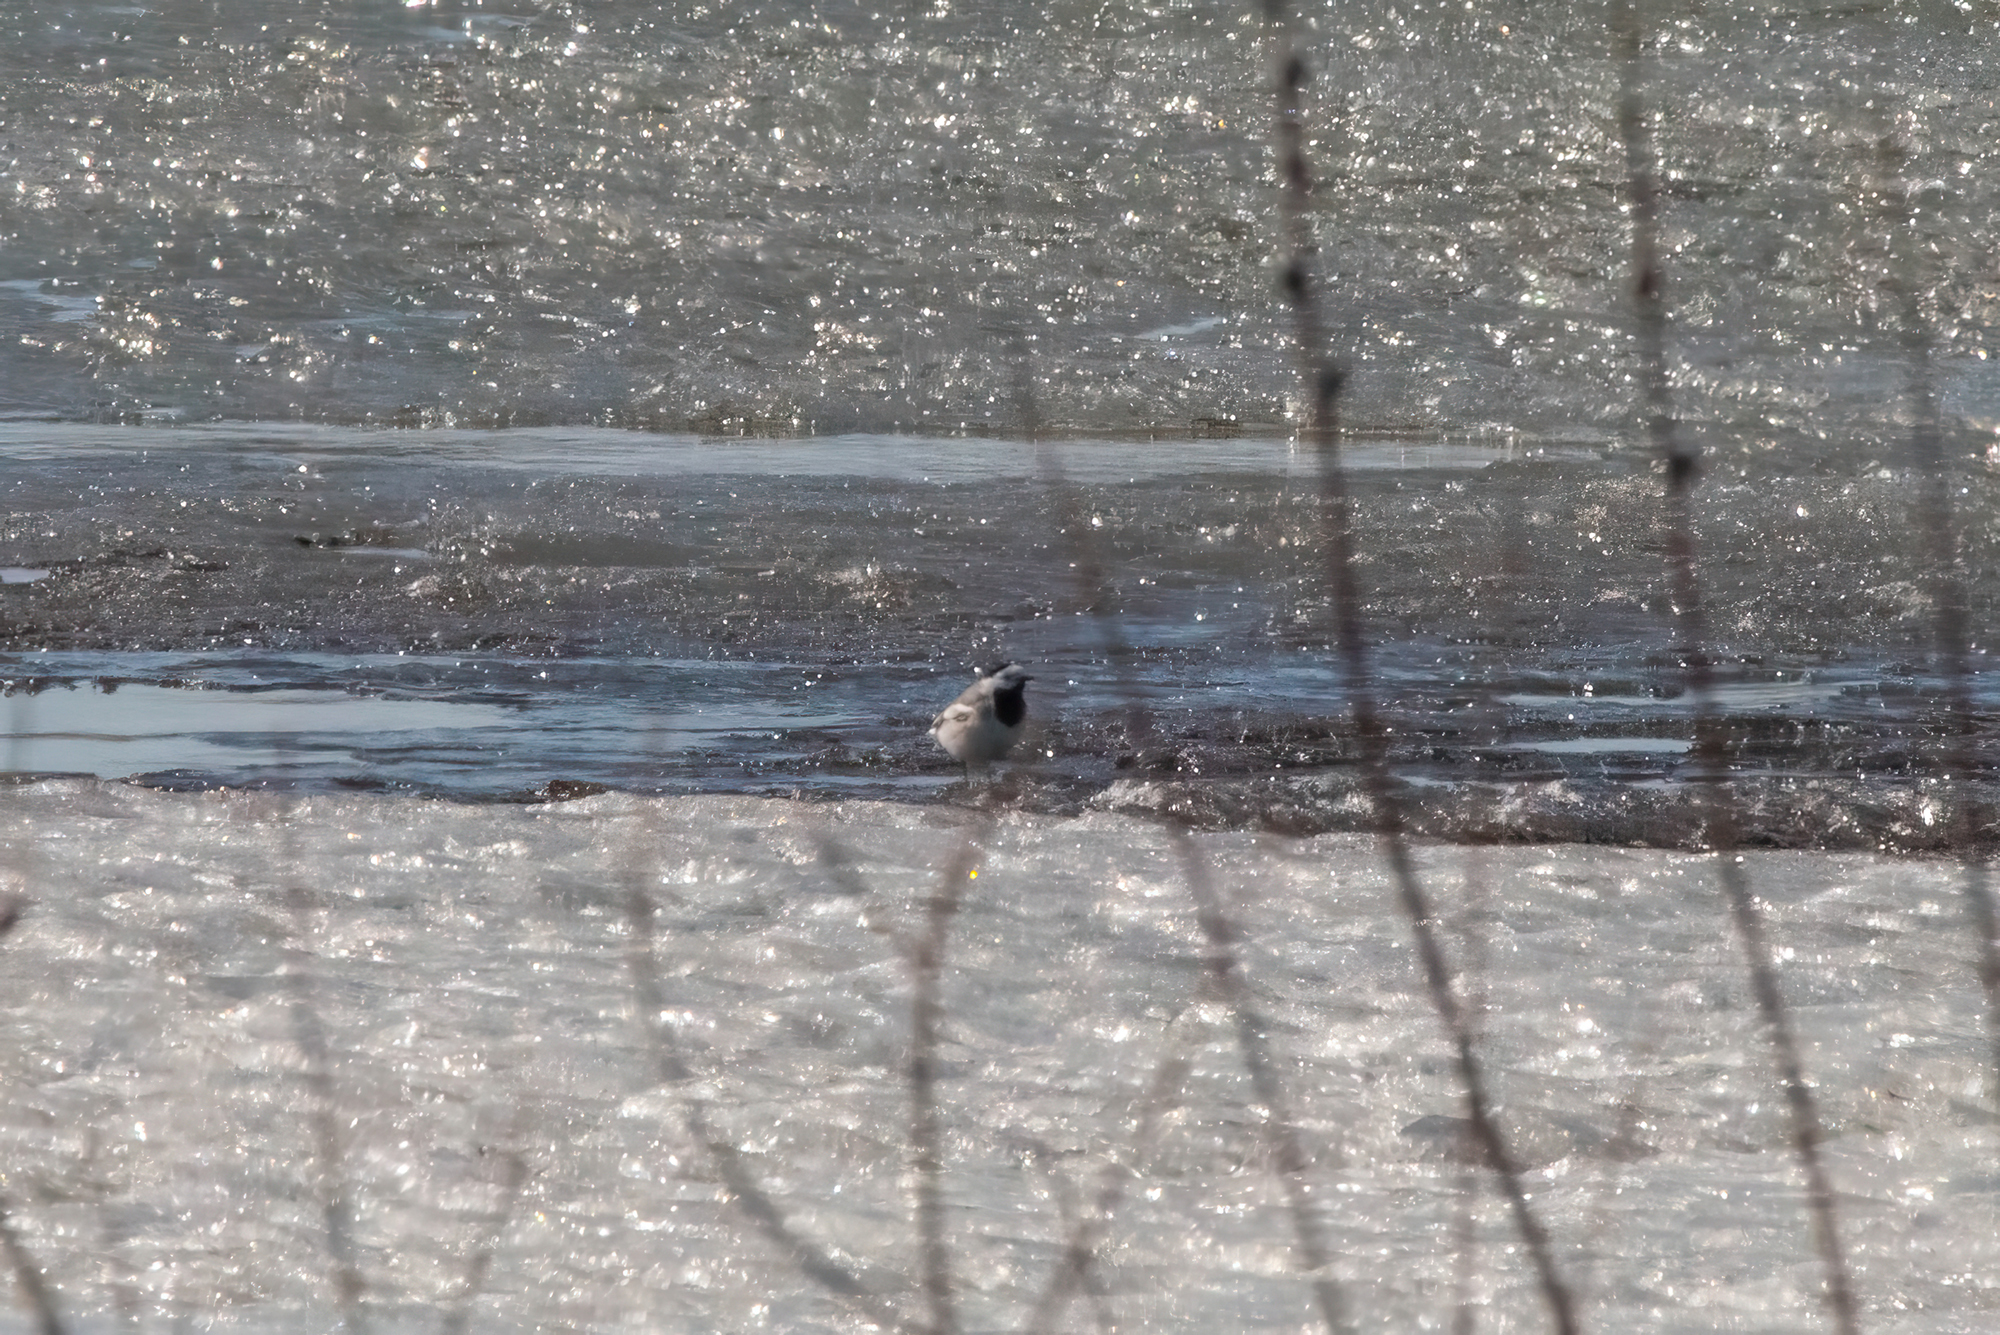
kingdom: Animalia
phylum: Chordata
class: Aves
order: Passeriformes
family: Motacillidae
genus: Motacilla
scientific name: Motacilla alba
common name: White wagtail
